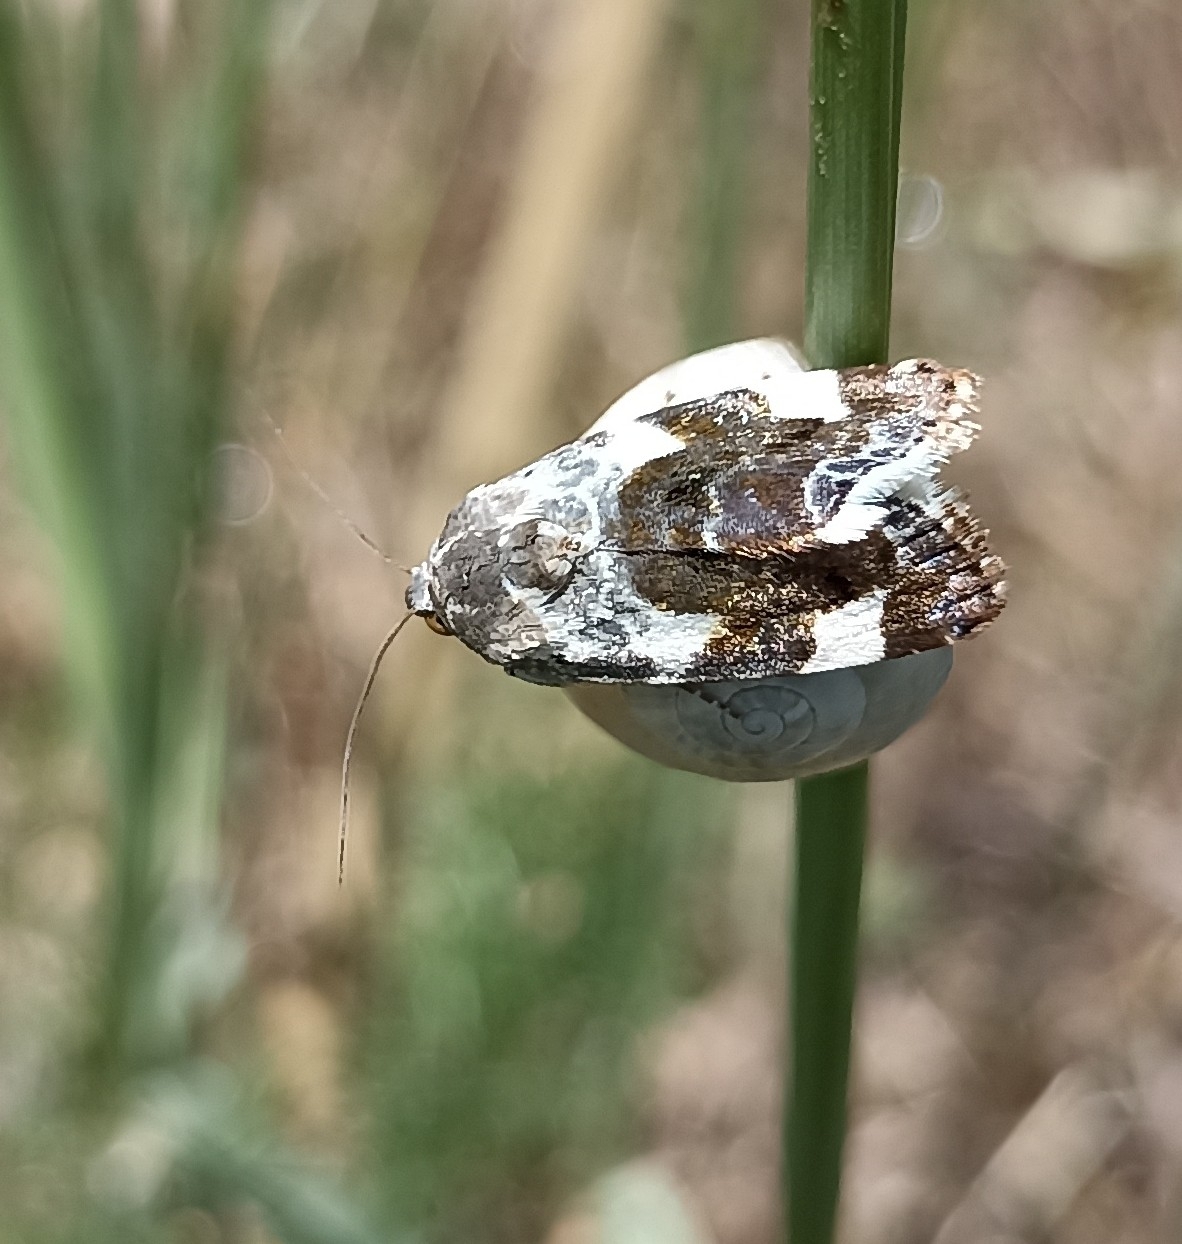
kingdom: Animalia
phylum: Arthropoda
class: Insecta
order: Lepidoptera
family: Noctuidae
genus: Acontia
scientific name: Acontia lucida
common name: Pale shoulder
